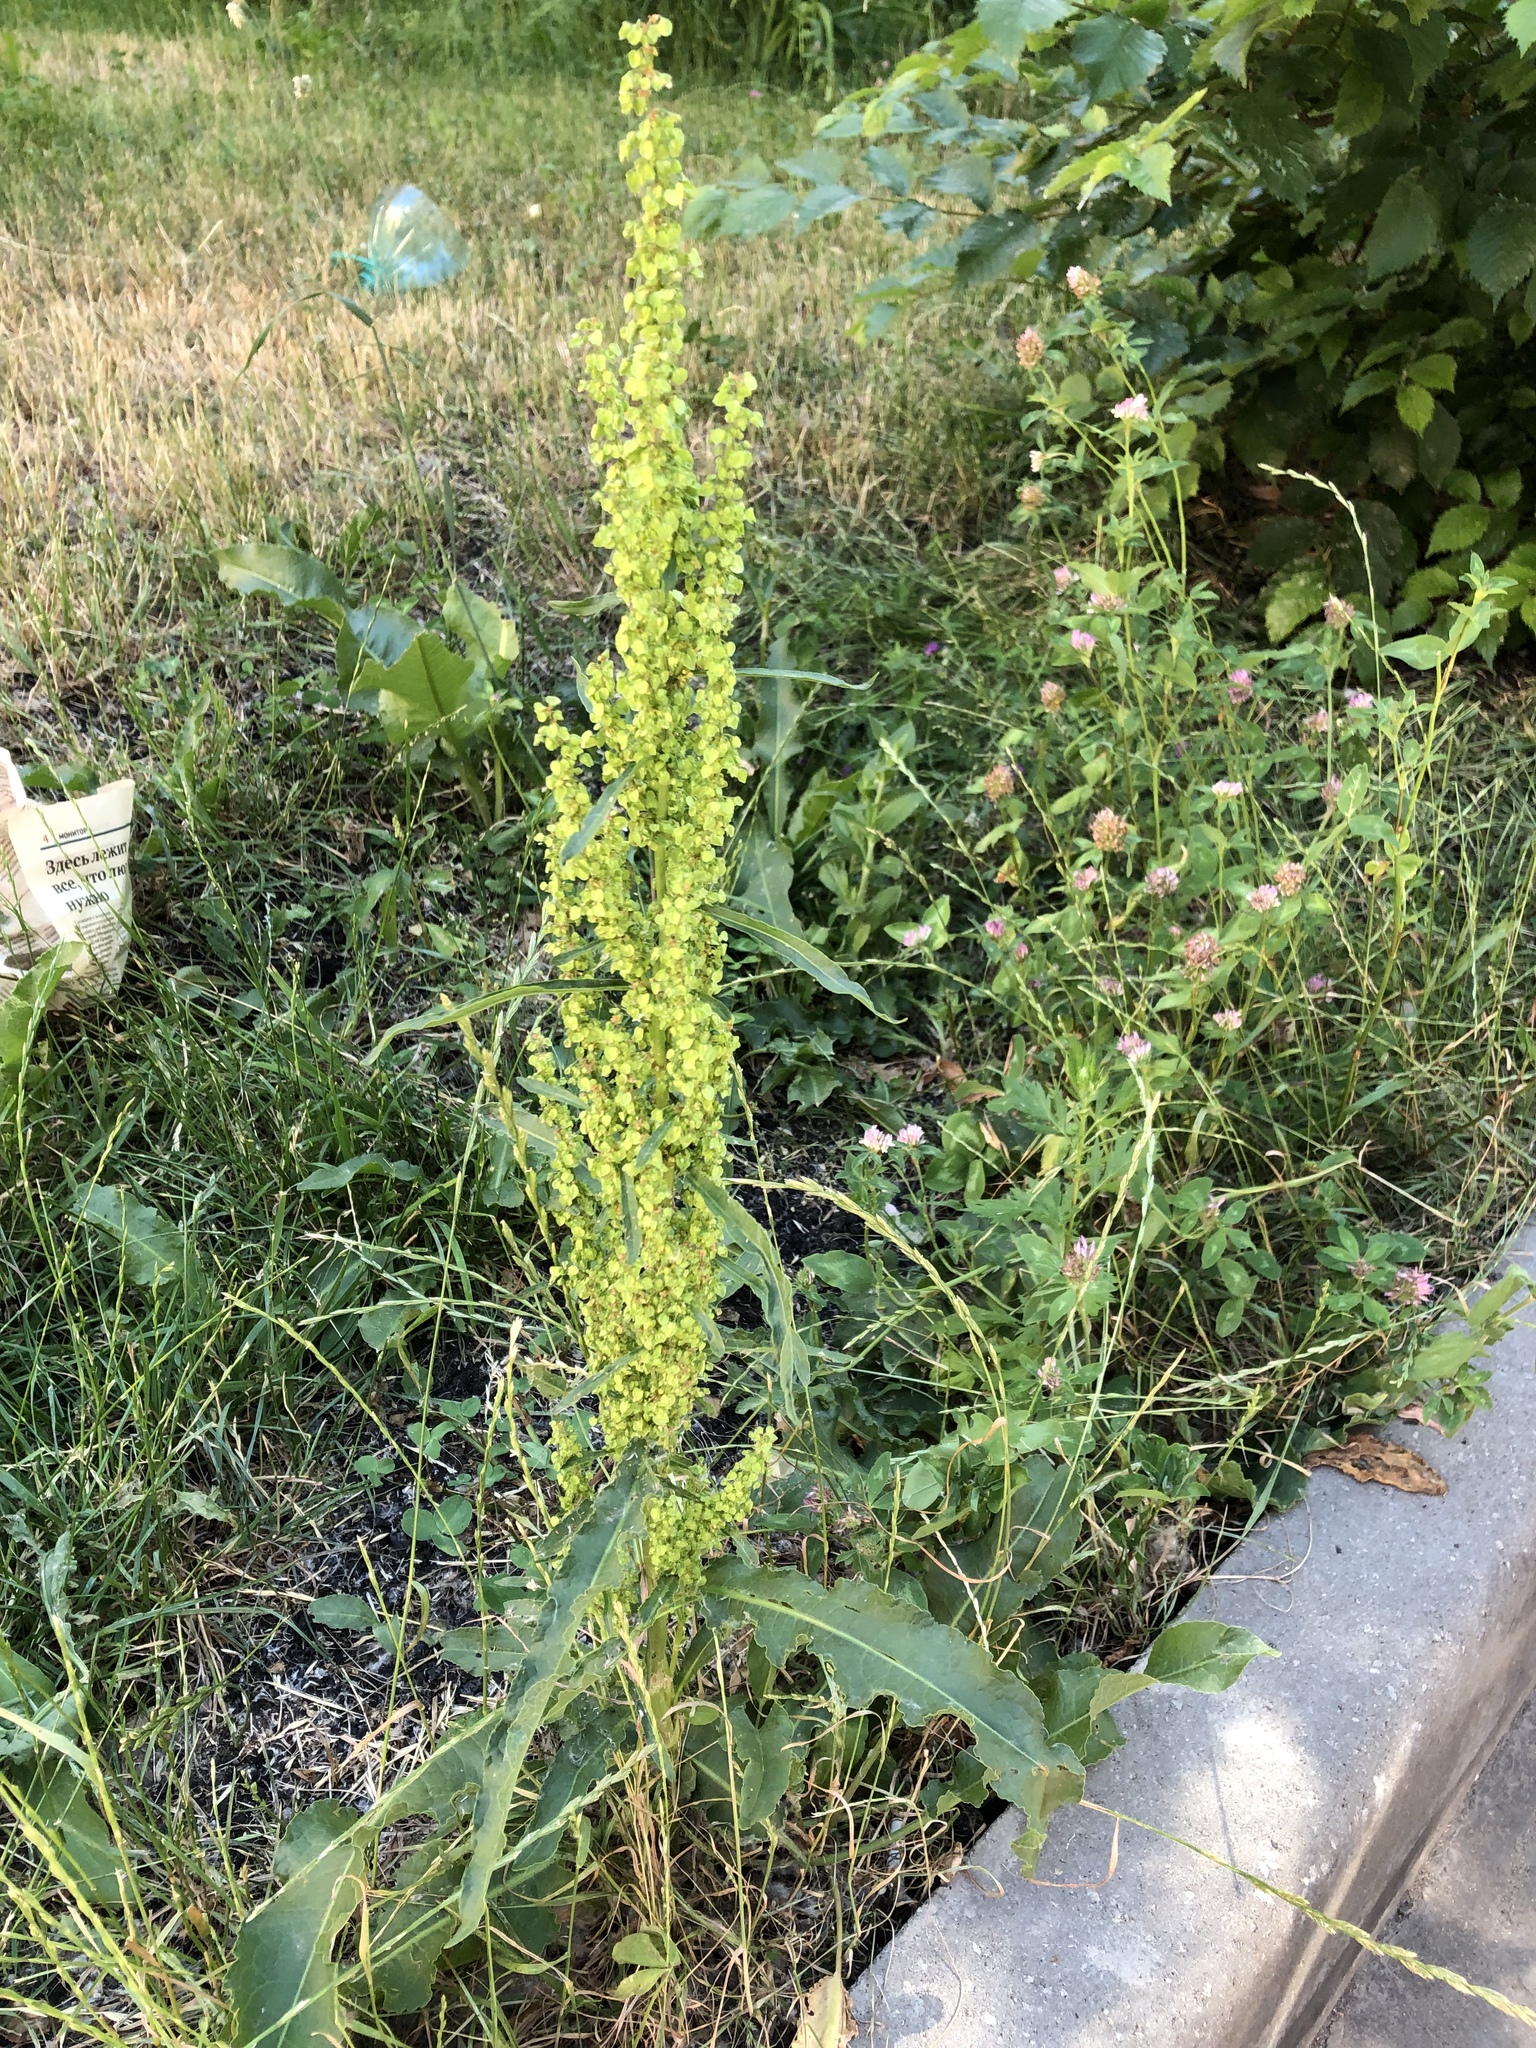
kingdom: Plantae
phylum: Tracheophyta
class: Magnoliopsida
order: Caryophyllales
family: Polygonaceae
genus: Rumex
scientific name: Rumex crispus
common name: Curled dock
